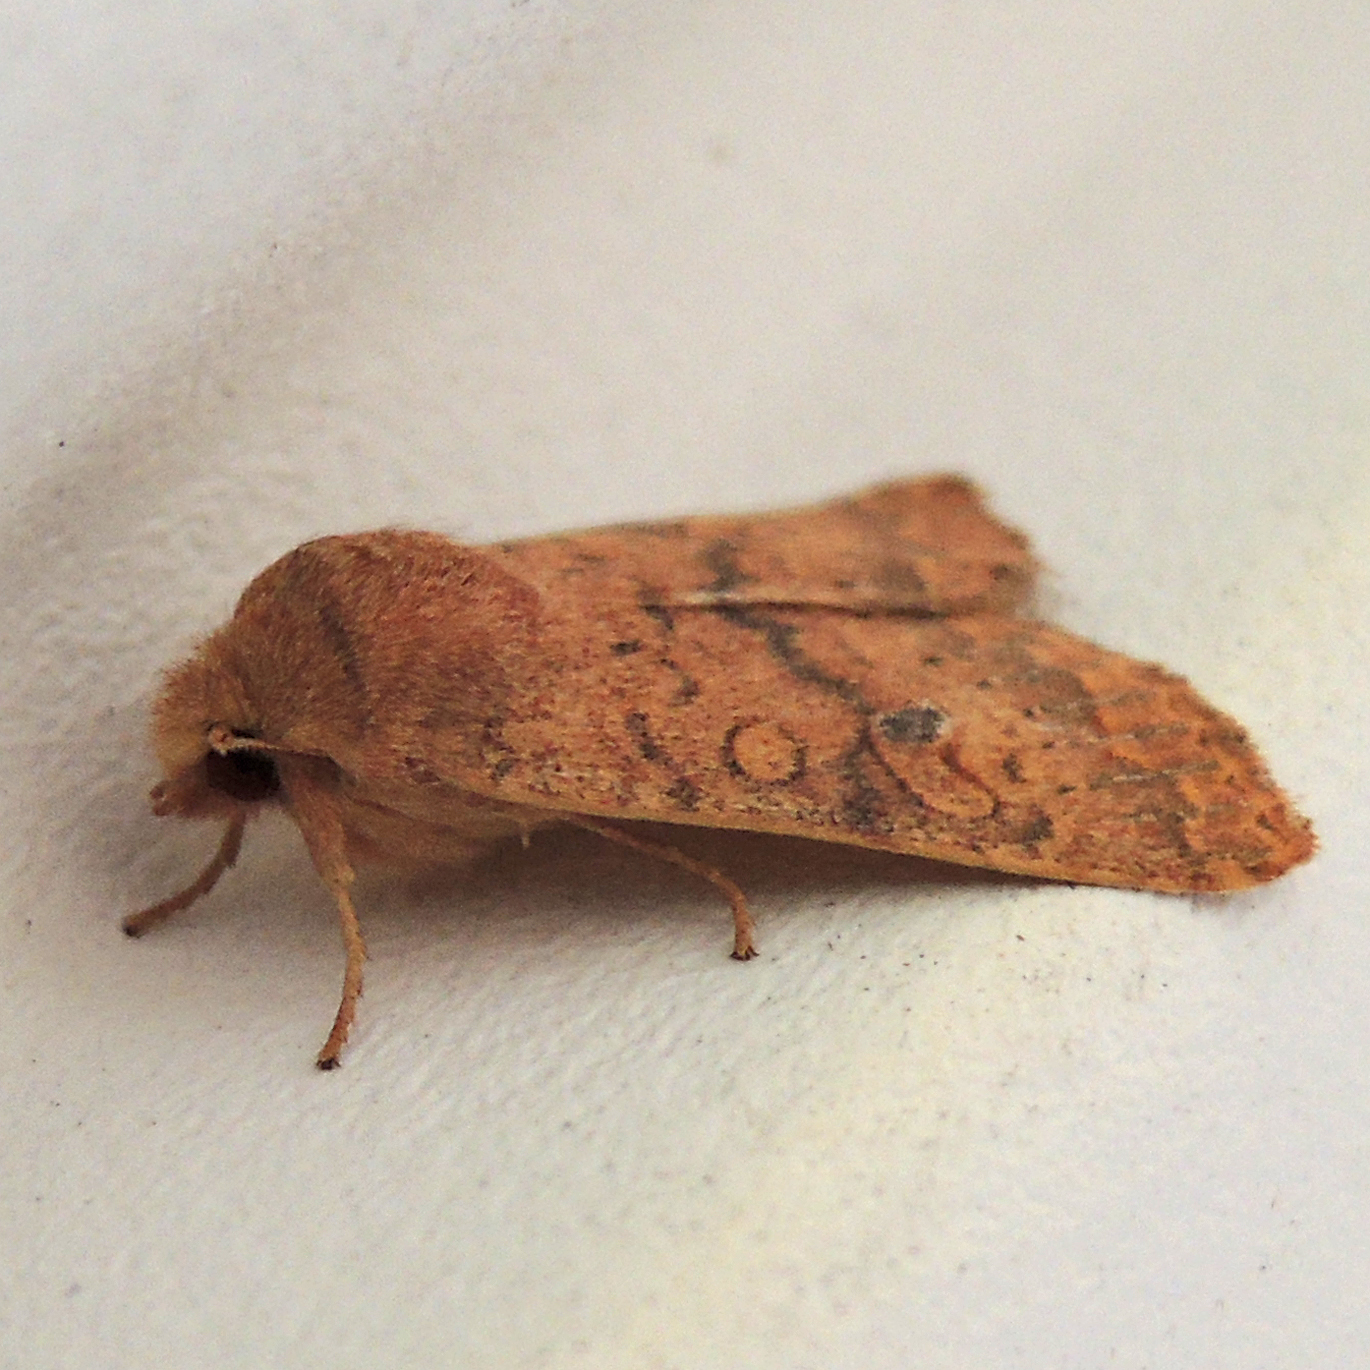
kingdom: Animalia
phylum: Arthropoda
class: Insecta
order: Lepidoptera
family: Noctuidae
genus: Agrochola
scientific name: Agrochola bicolorago
